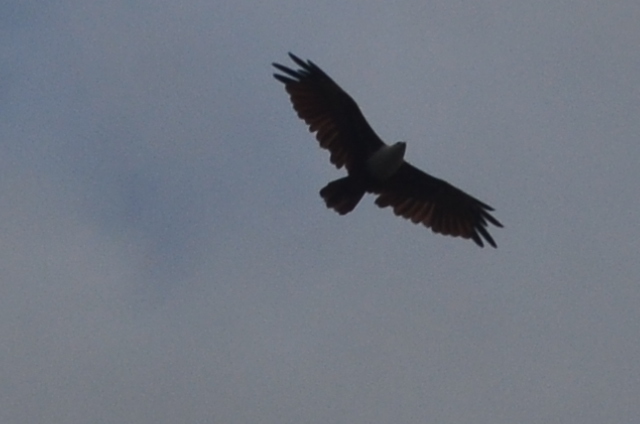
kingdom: Animalia
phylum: Chordata
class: Aves
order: Accipitriformes
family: Accipitridae
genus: Haliastur
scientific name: Haliastur indus
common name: Brahminy kite
